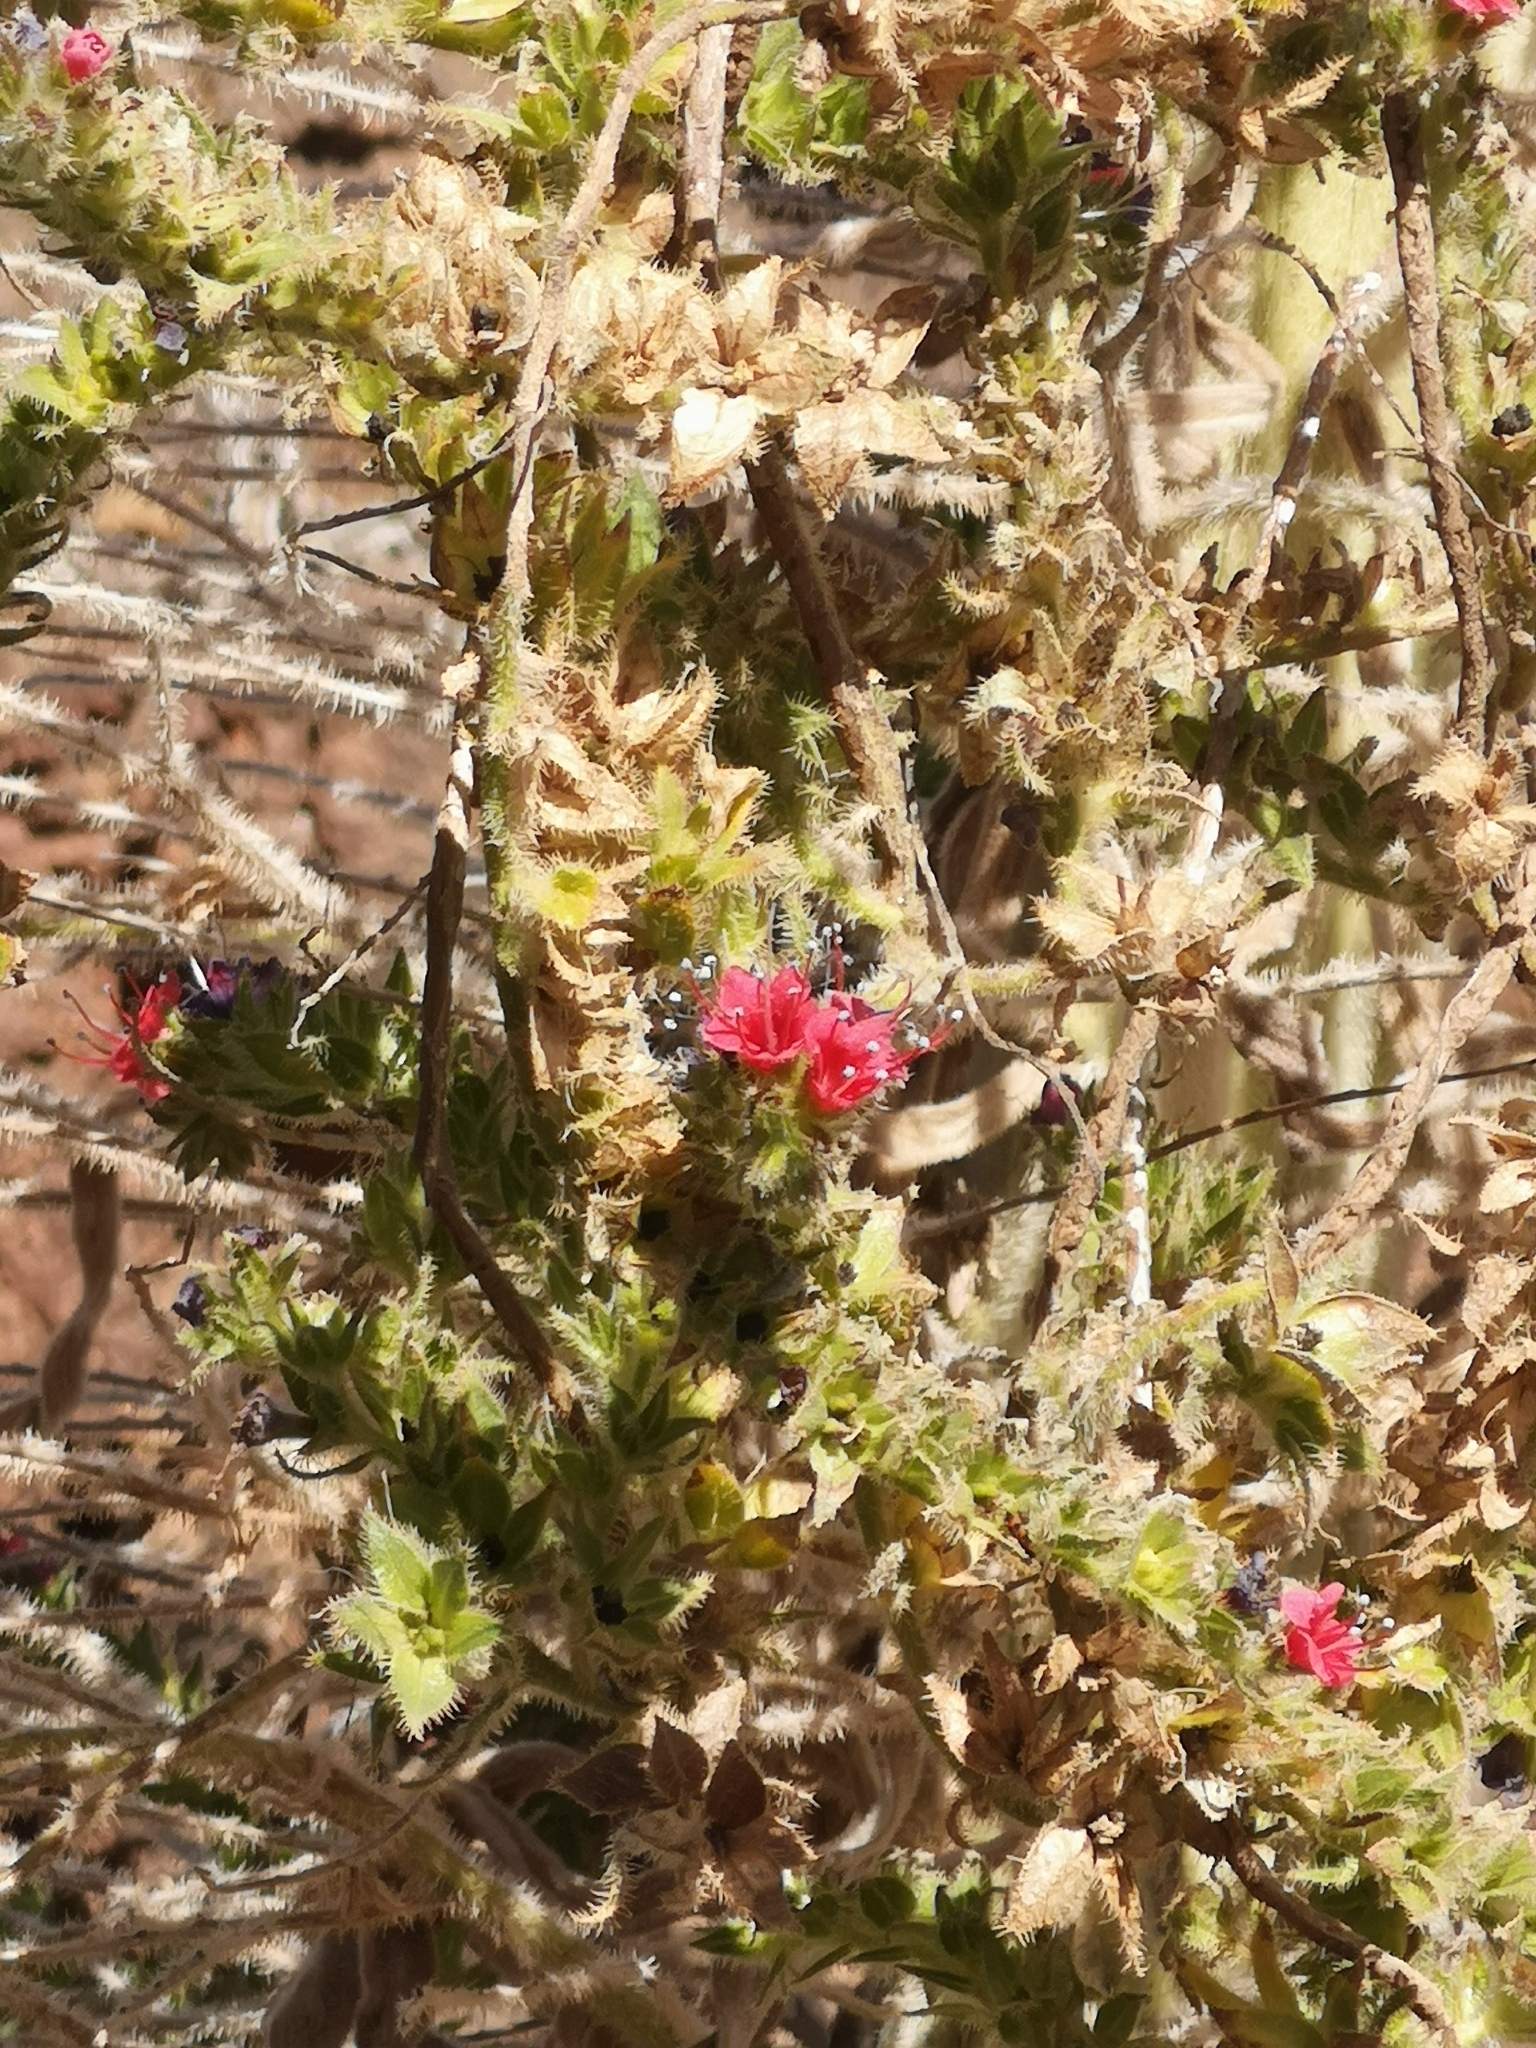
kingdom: Plantae
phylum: Tracheophyta
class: Magnoliopsida
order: Boraginales
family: Boraginaceae
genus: Echium
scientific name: Echium wildpretii
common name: Tower-of-jewels
